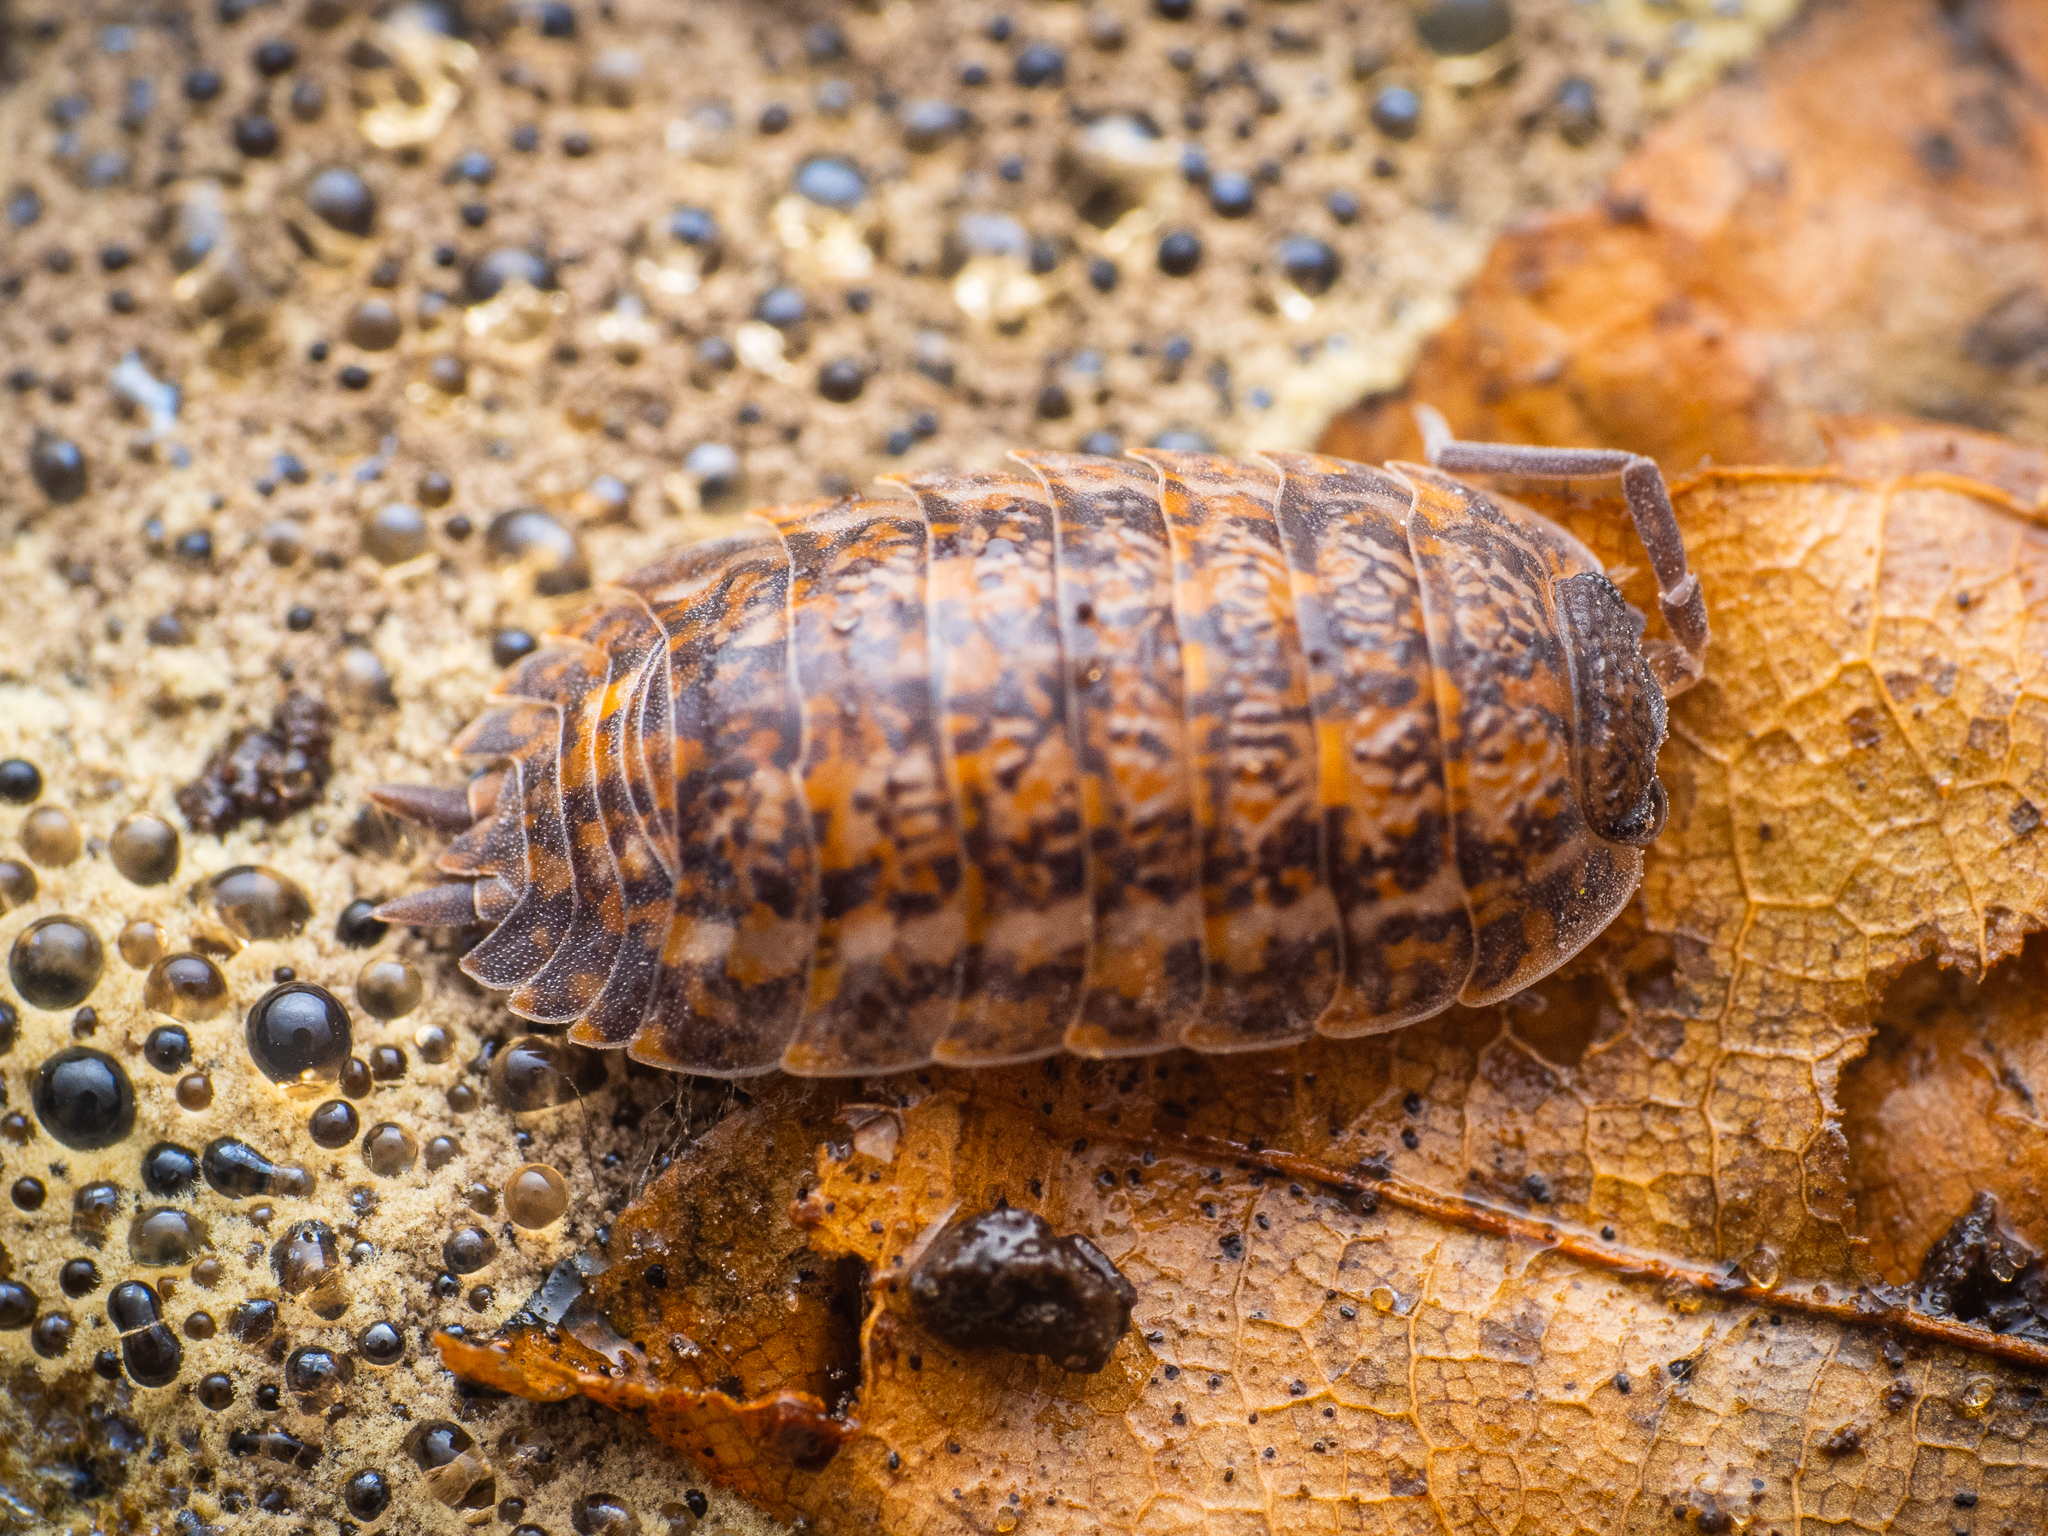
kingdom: Animalia
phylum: Arthropoda
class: Malacostraca
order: Isopoda
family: Trachelipodidae
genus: Trachelipus
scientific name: Trachelipus rathkii
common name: Isopod
